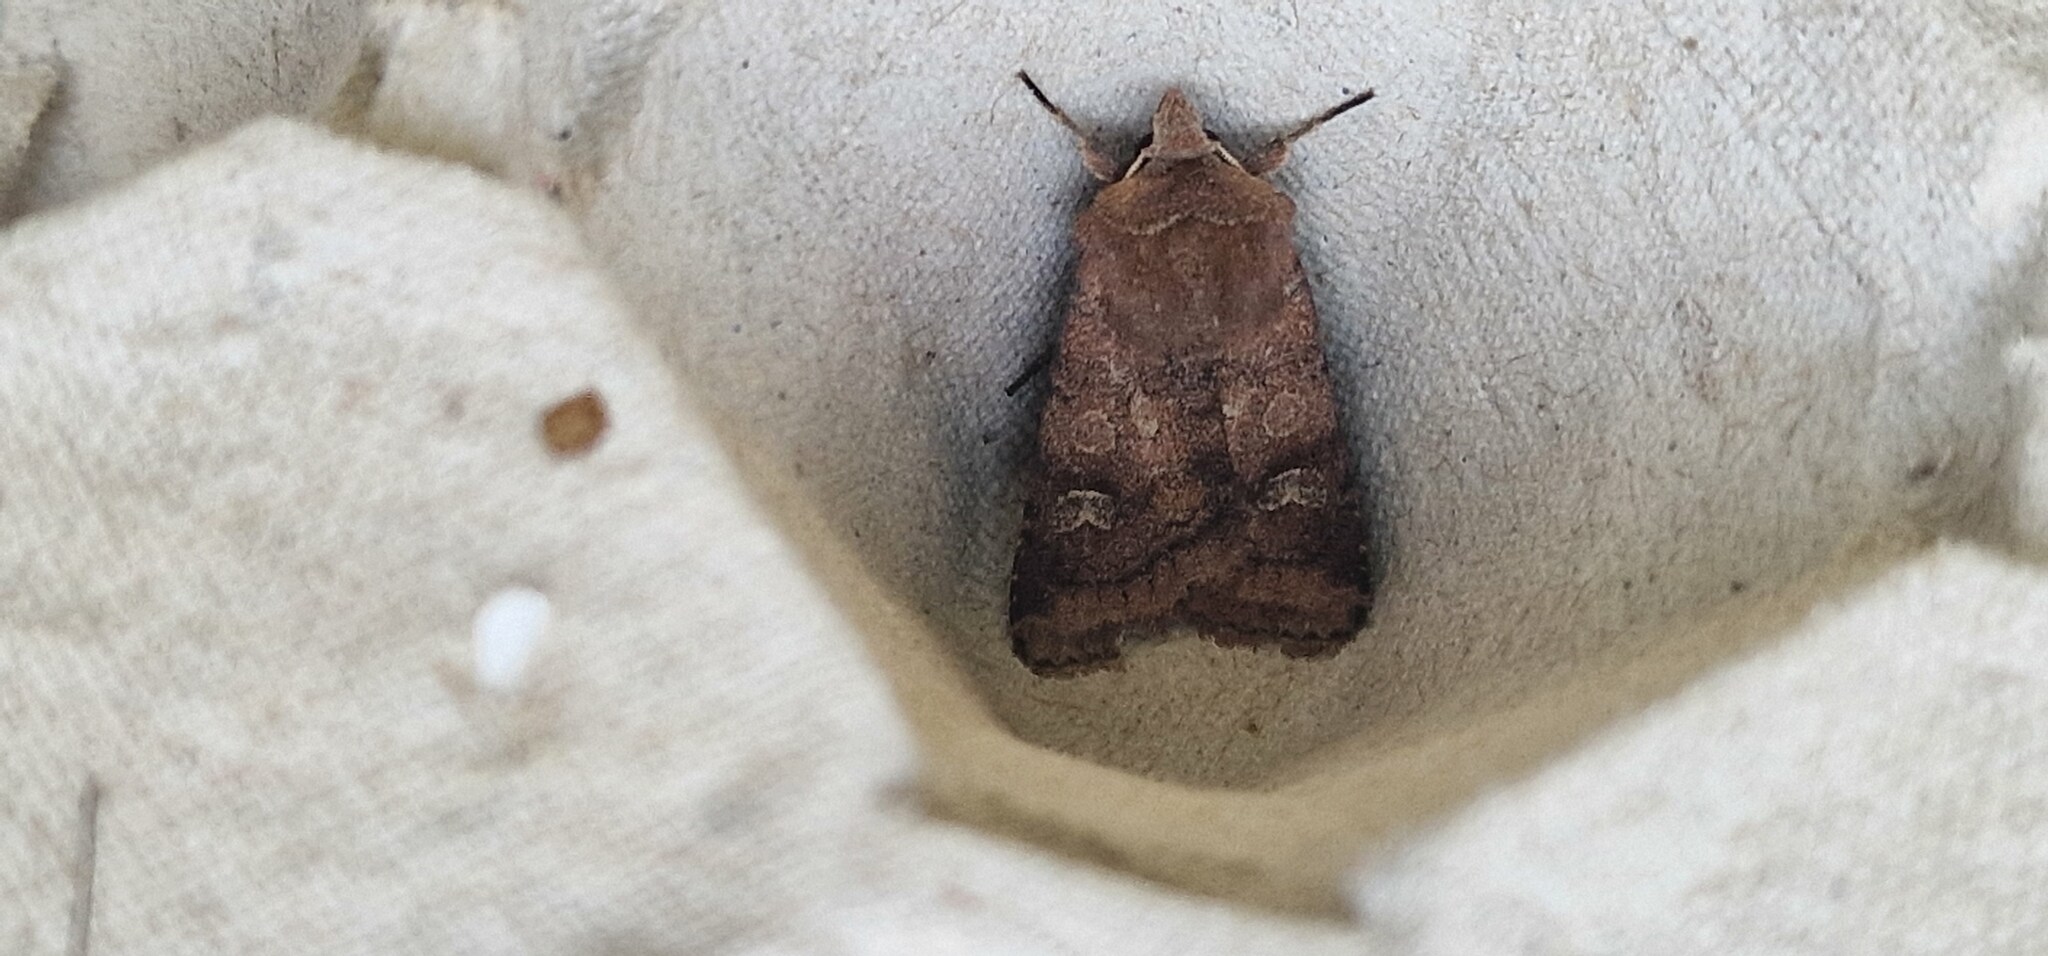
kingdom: Animalia
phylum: Arthropoda
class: Insecta
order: Lepidoptera
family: Noctuidae
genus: Diarsia
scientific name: Diarsia rubi
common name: Small square-spot
